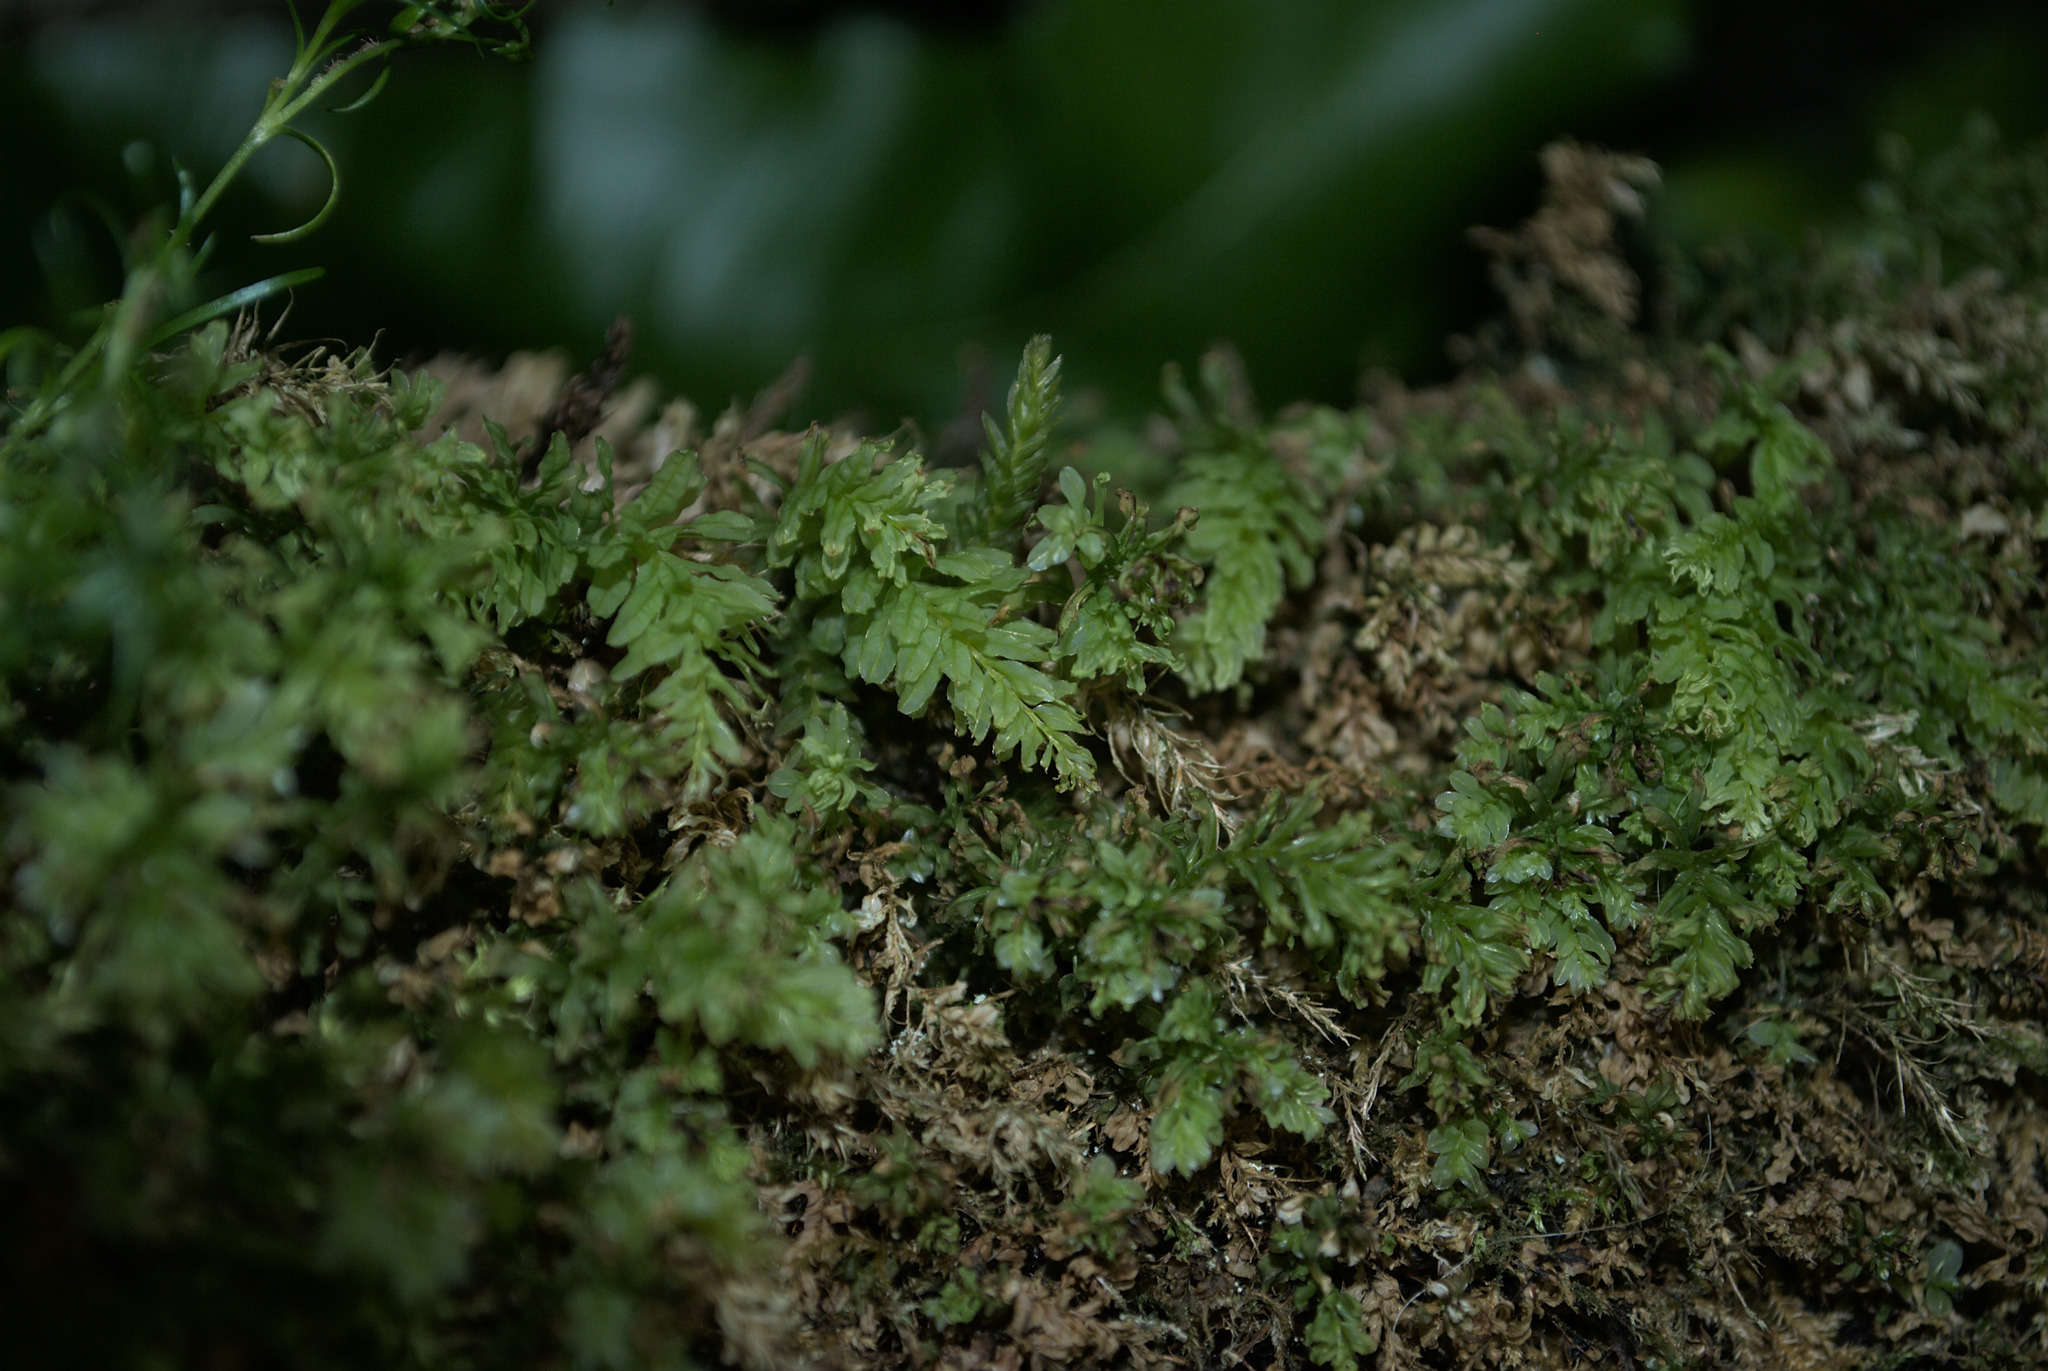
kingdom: Plantae
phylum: Bryophyta
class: Bryopsida
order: Bryales
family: Mniaceae
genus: Plagiomnium
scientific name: Plagiomnium undulatum
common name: Hart's-tongue thyme-moss
